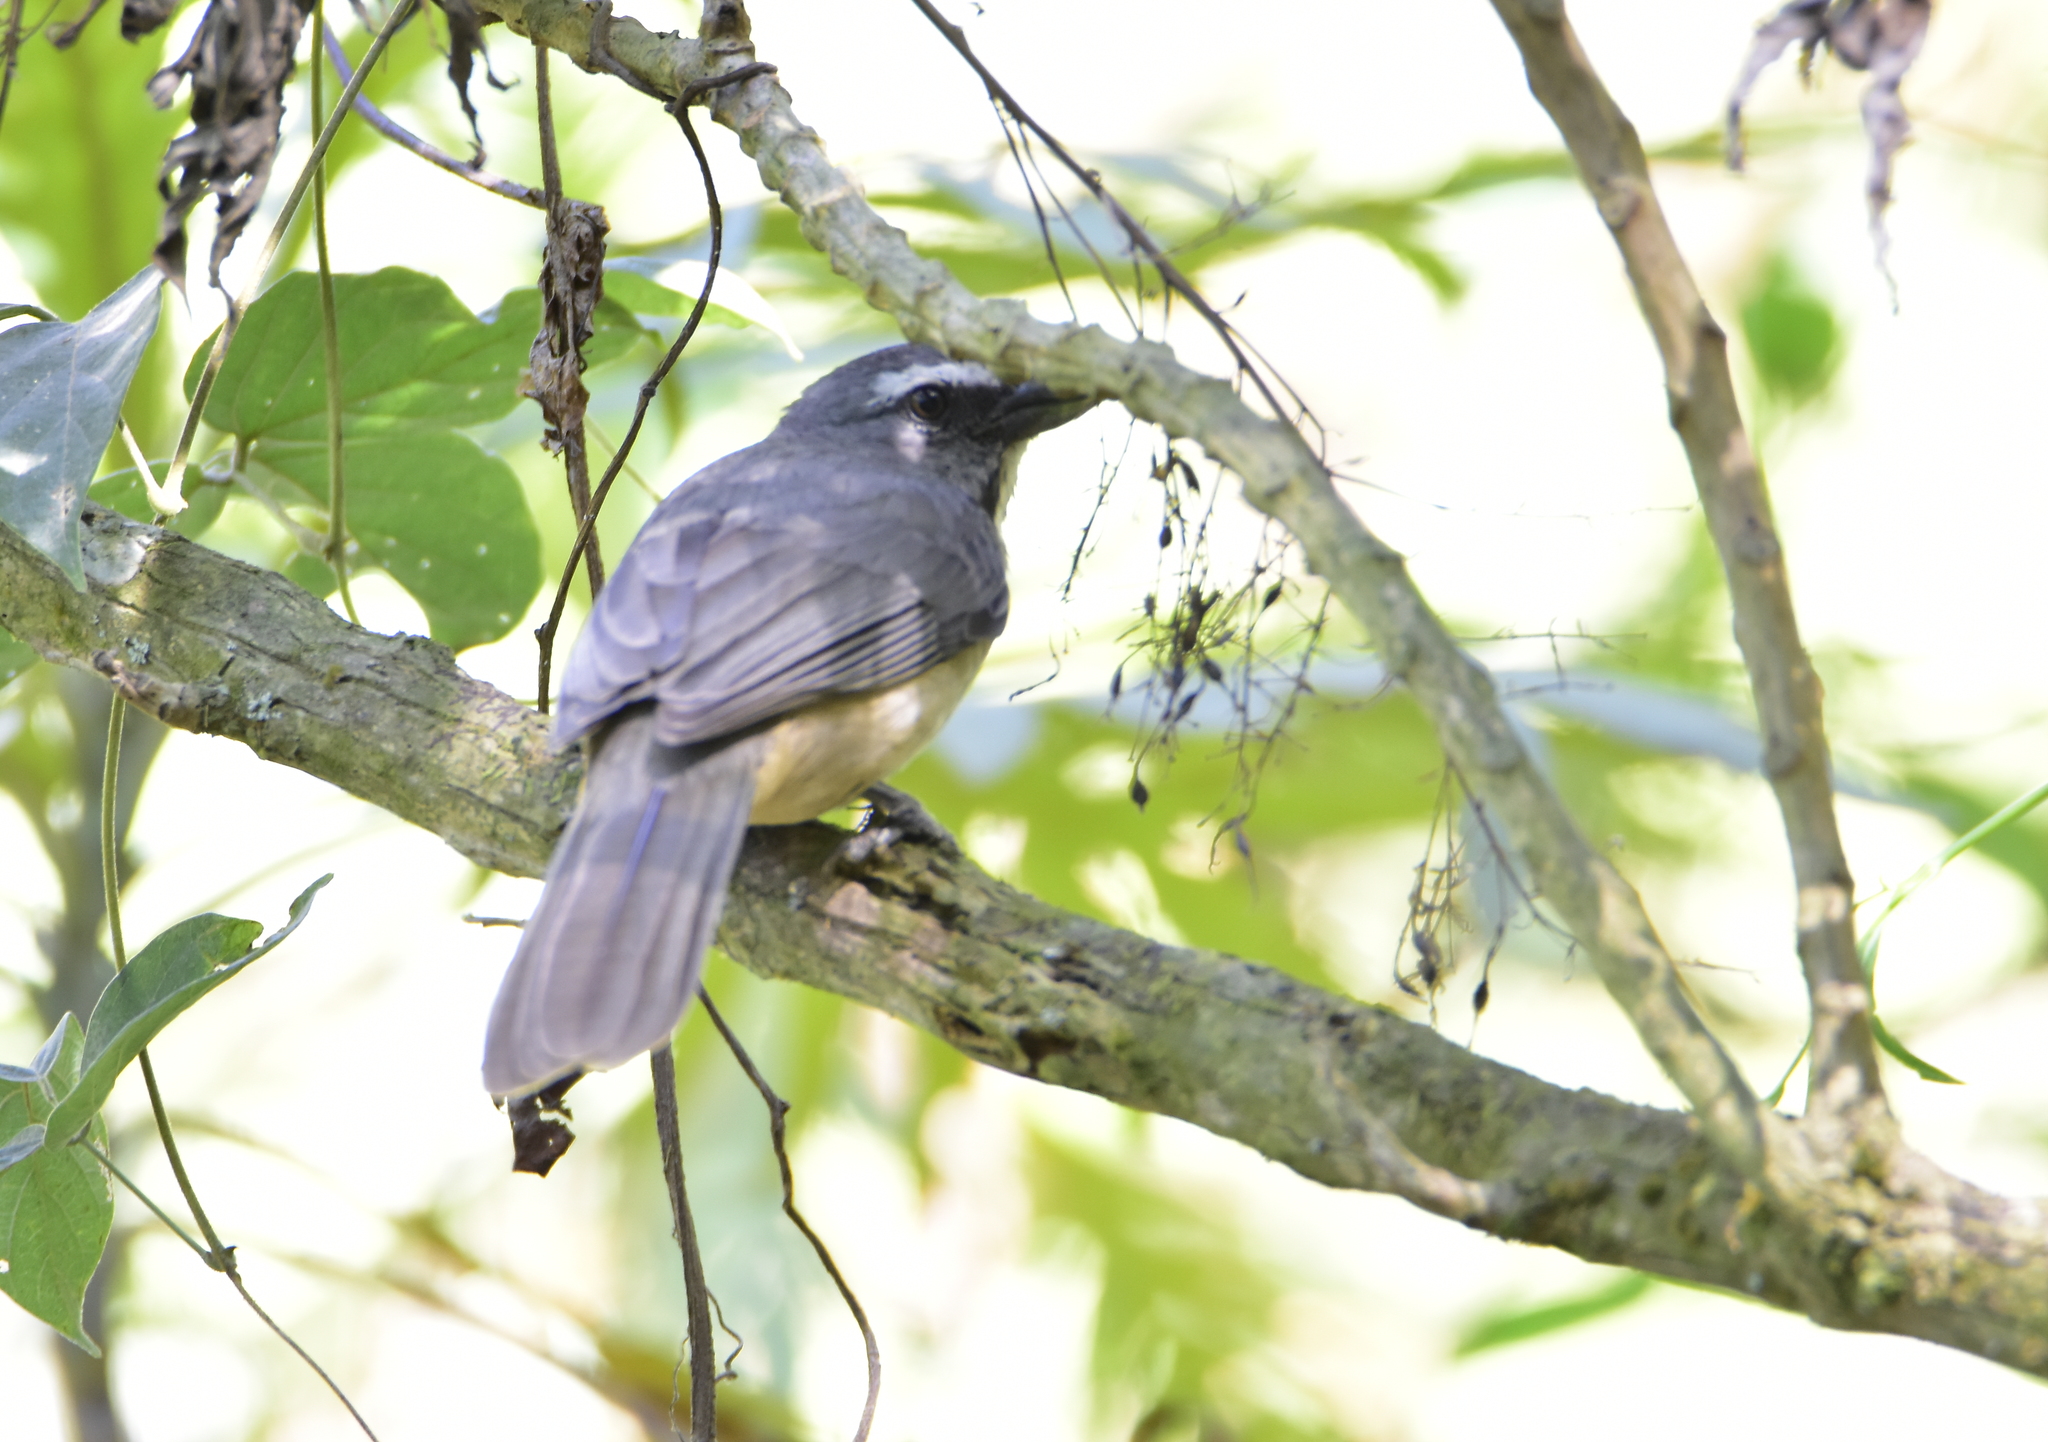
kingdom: Animalia
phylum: Chordata
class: Aves
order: Passeriformes
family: Thraupidae
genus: Saltator
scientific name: Saltator grandis
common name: Cinnamon-bellied saltator
